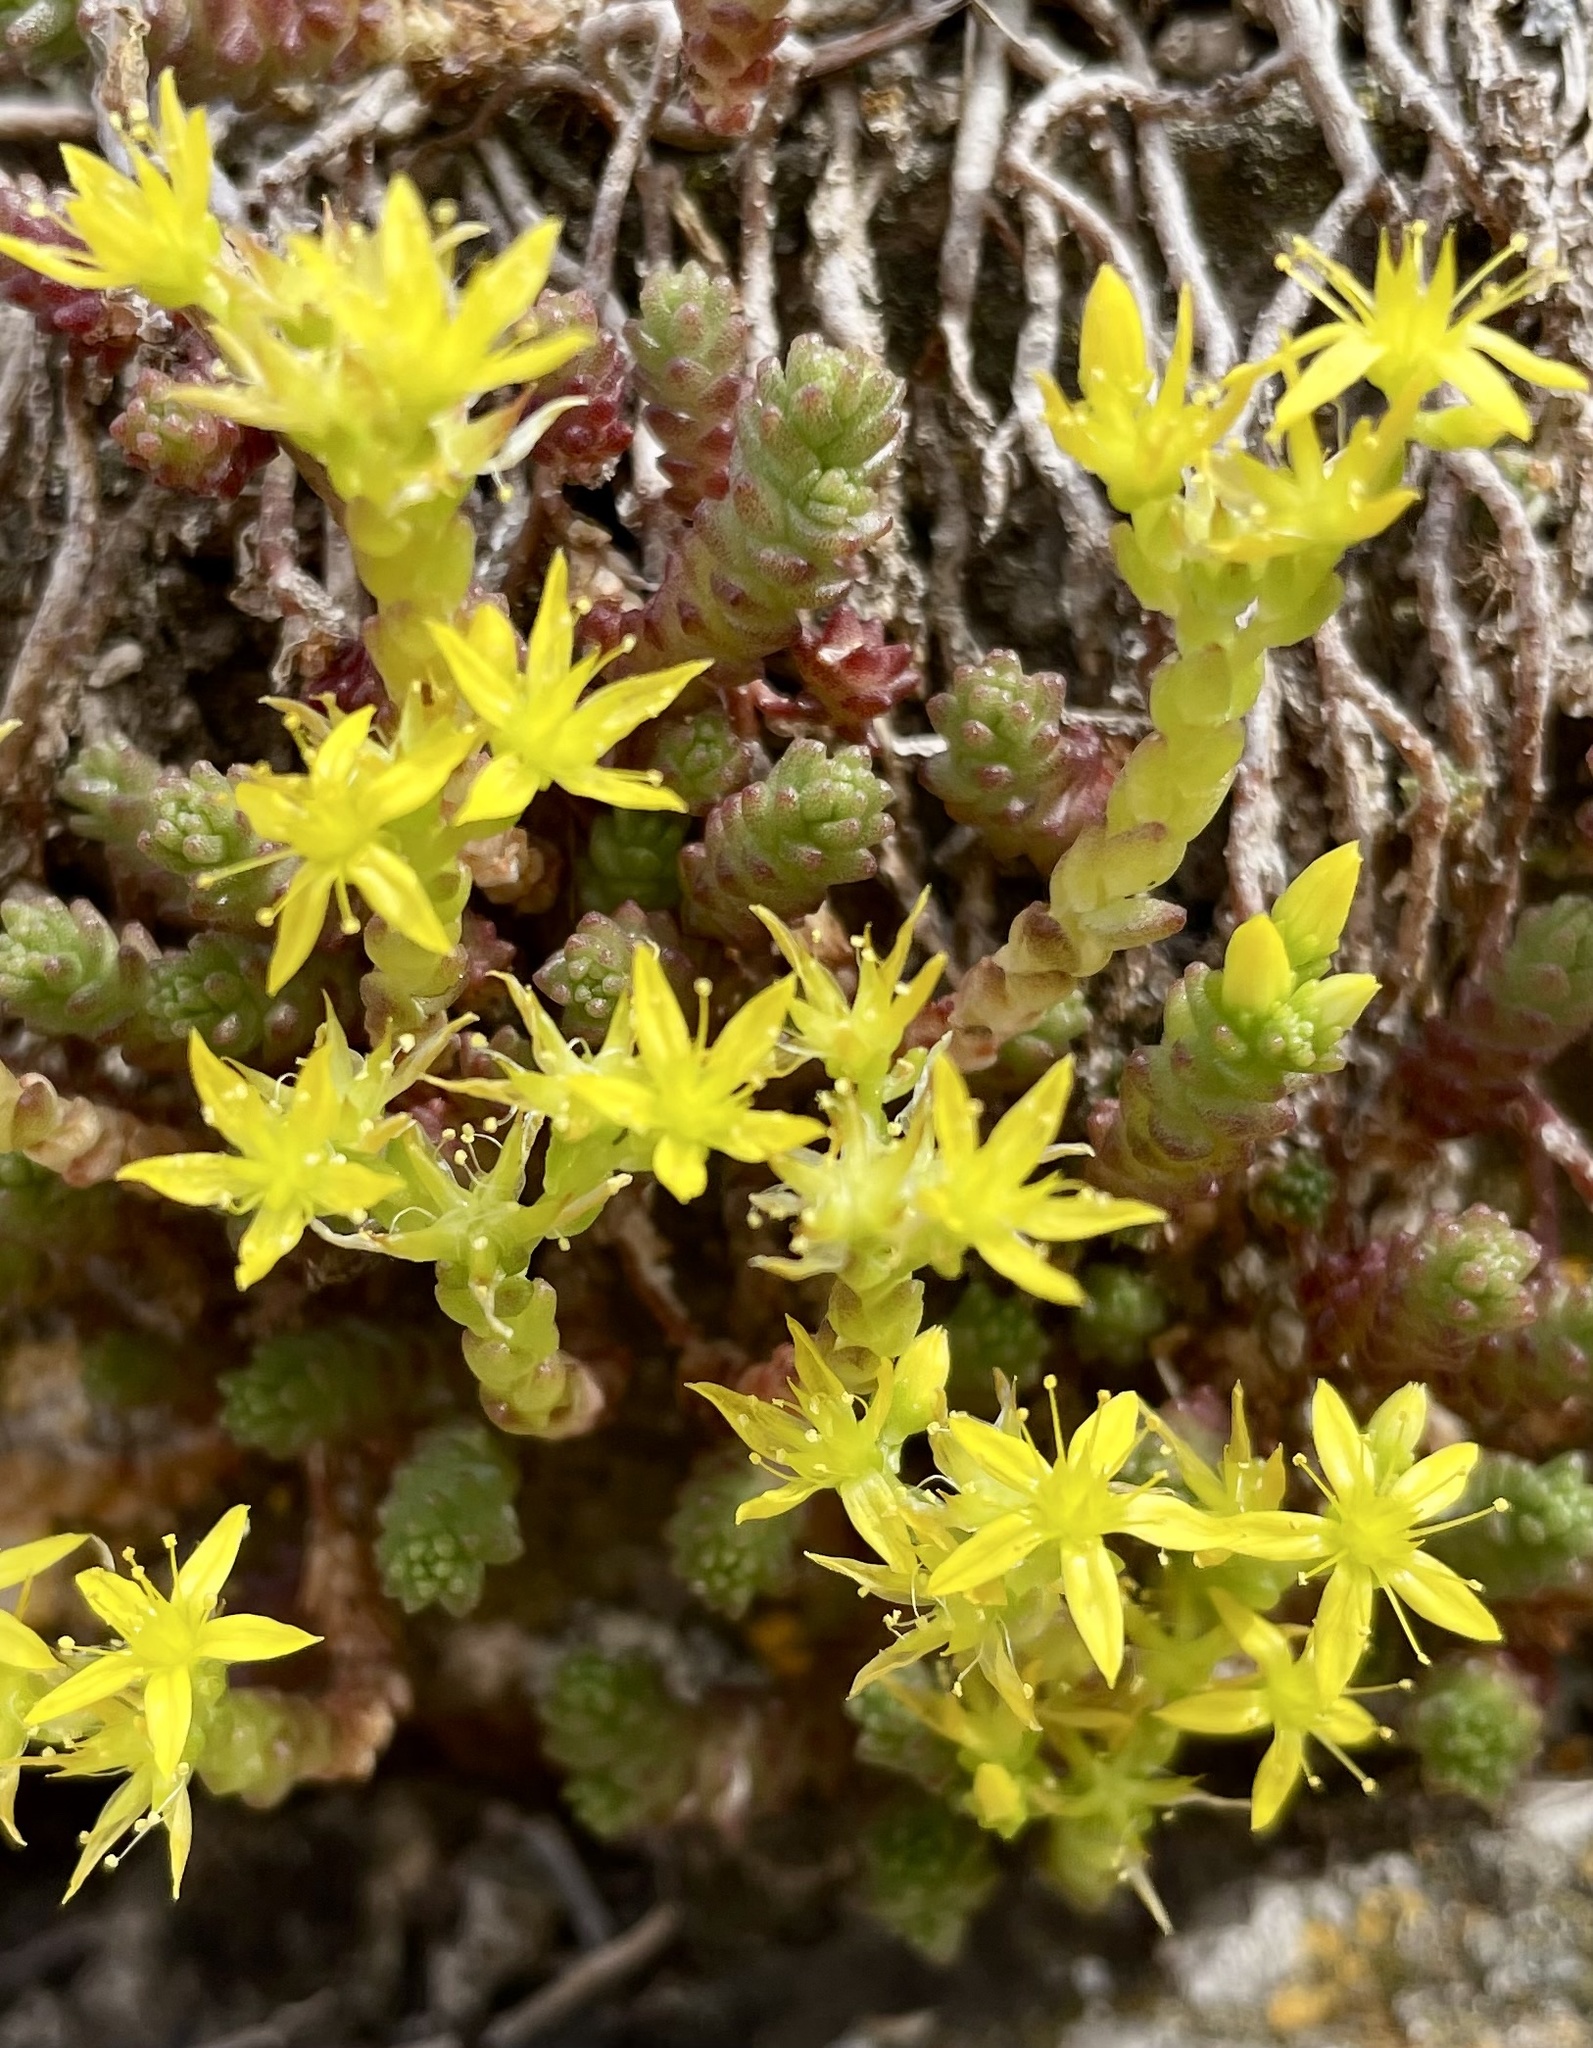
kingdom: Plantae
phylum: Tracheophyta
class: Magnoliopsida
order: Saxifragales
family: Crassulaceae
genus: Sedum
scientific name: Sedum acre
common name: Biting stonecrop
